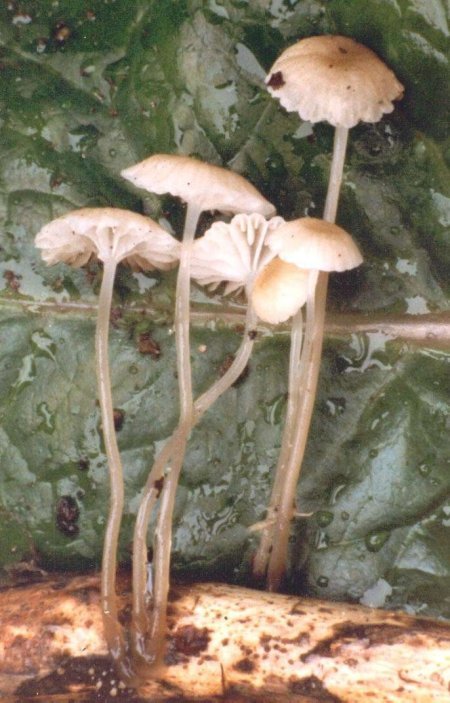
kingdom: Fungi
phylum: Basidiomycota
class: Agaricomycetes
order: Agaricales
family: Mycenaceae
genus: Roridomyces
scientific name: Roridomyces roridus
